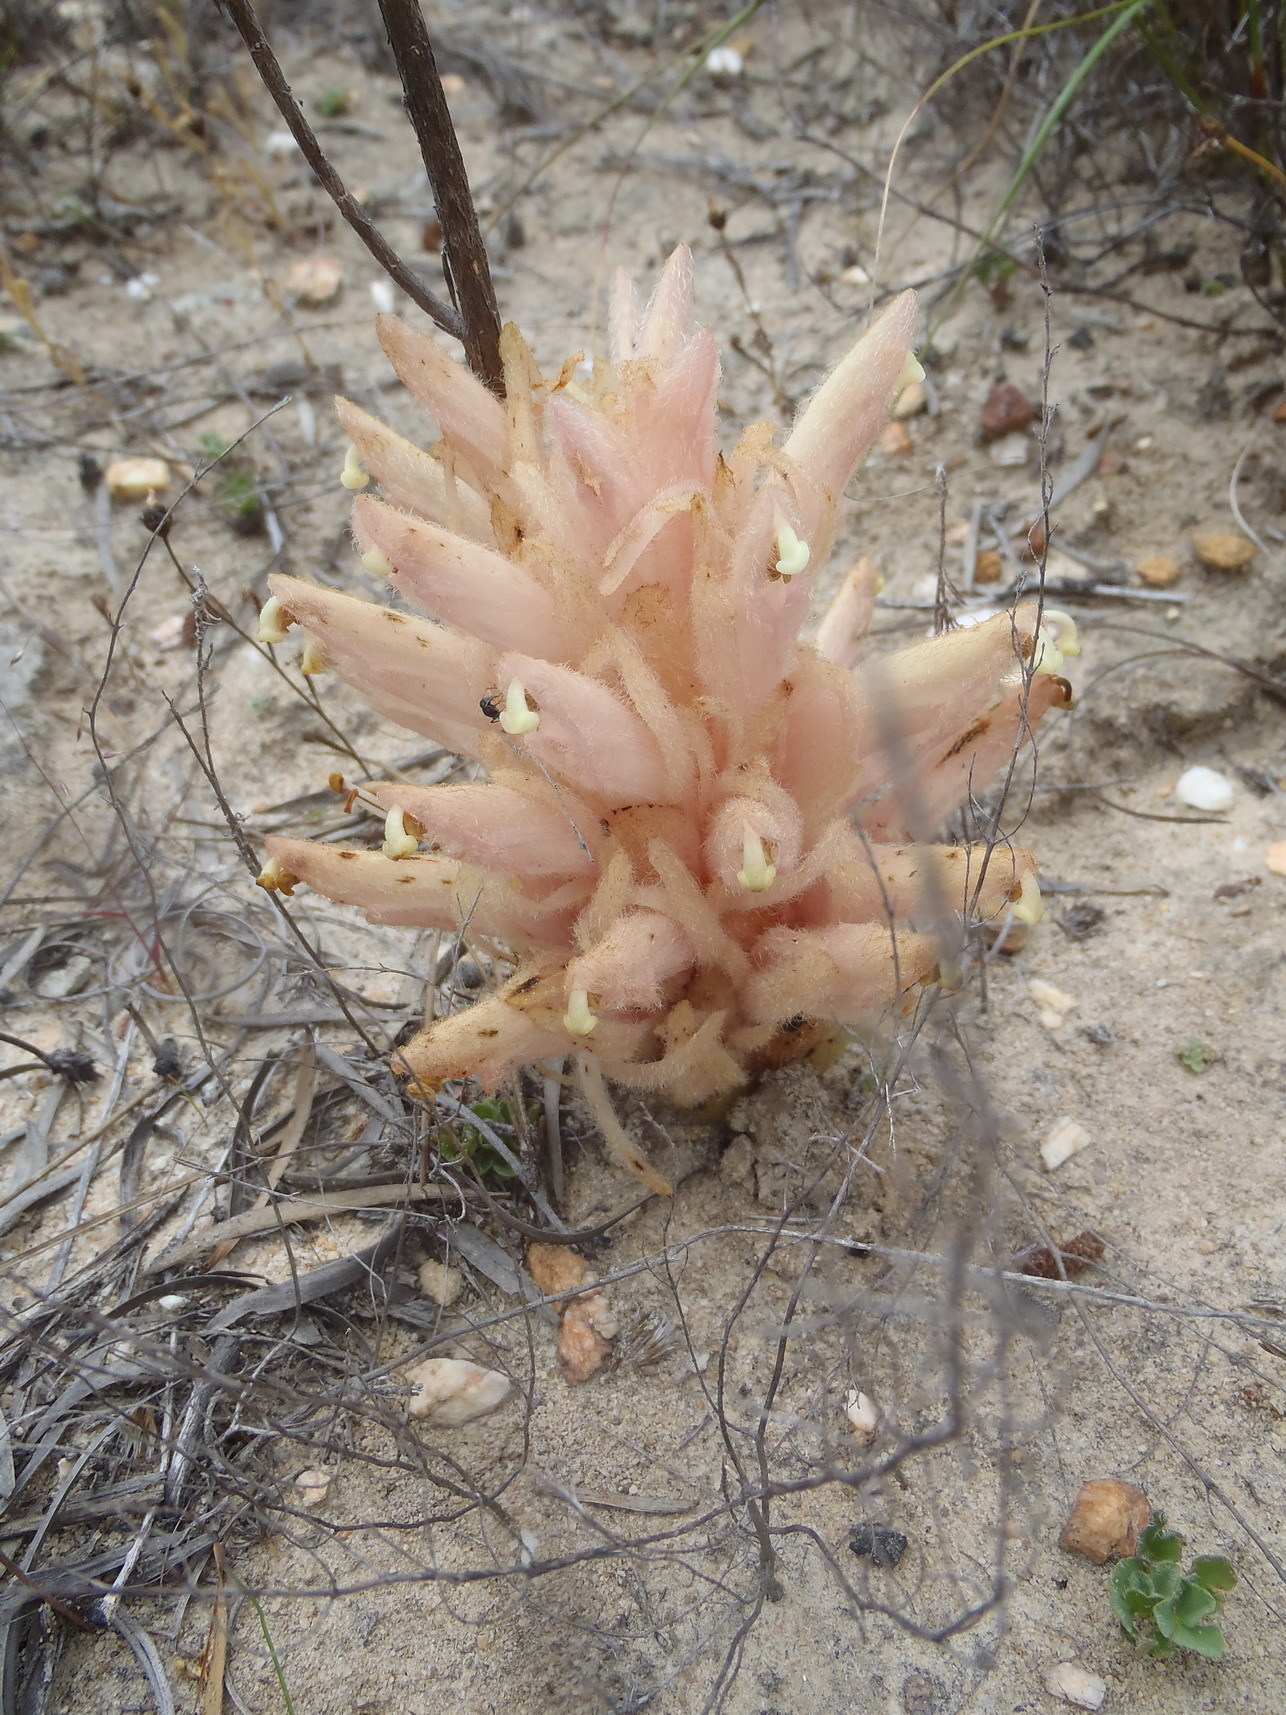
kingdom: Plantae
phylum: Tracheophyta
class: Magnoliopsida
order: Lamiales
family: Orobanchaceae
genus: Hyobanche
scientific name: Hyobanche rubra
